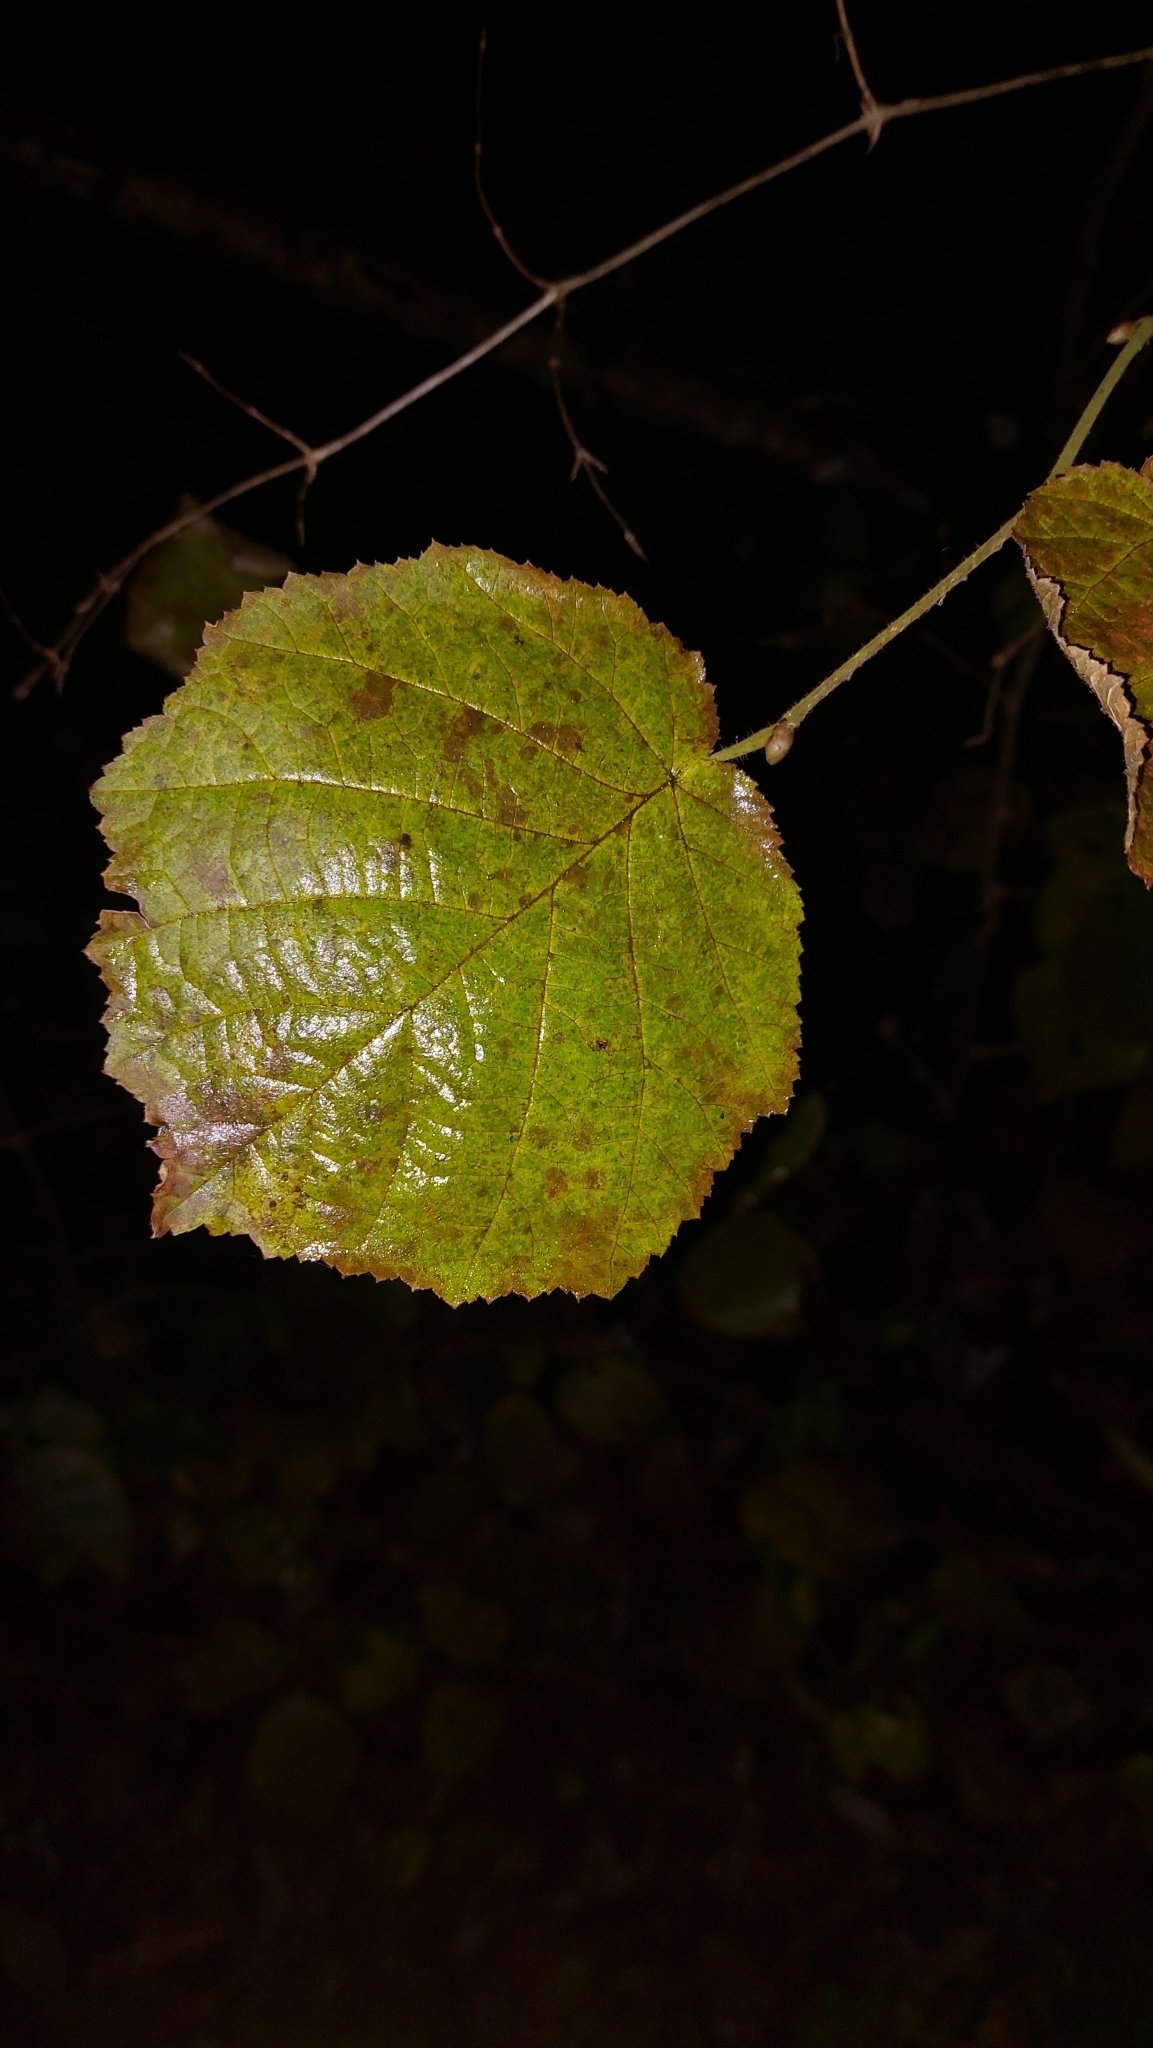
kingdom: Plantae
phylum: Tracheophyta
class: Magnoliopsida
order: Fagales
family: Betulaceae
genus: Corylus
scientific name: Corylus avellana
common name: European hazel
